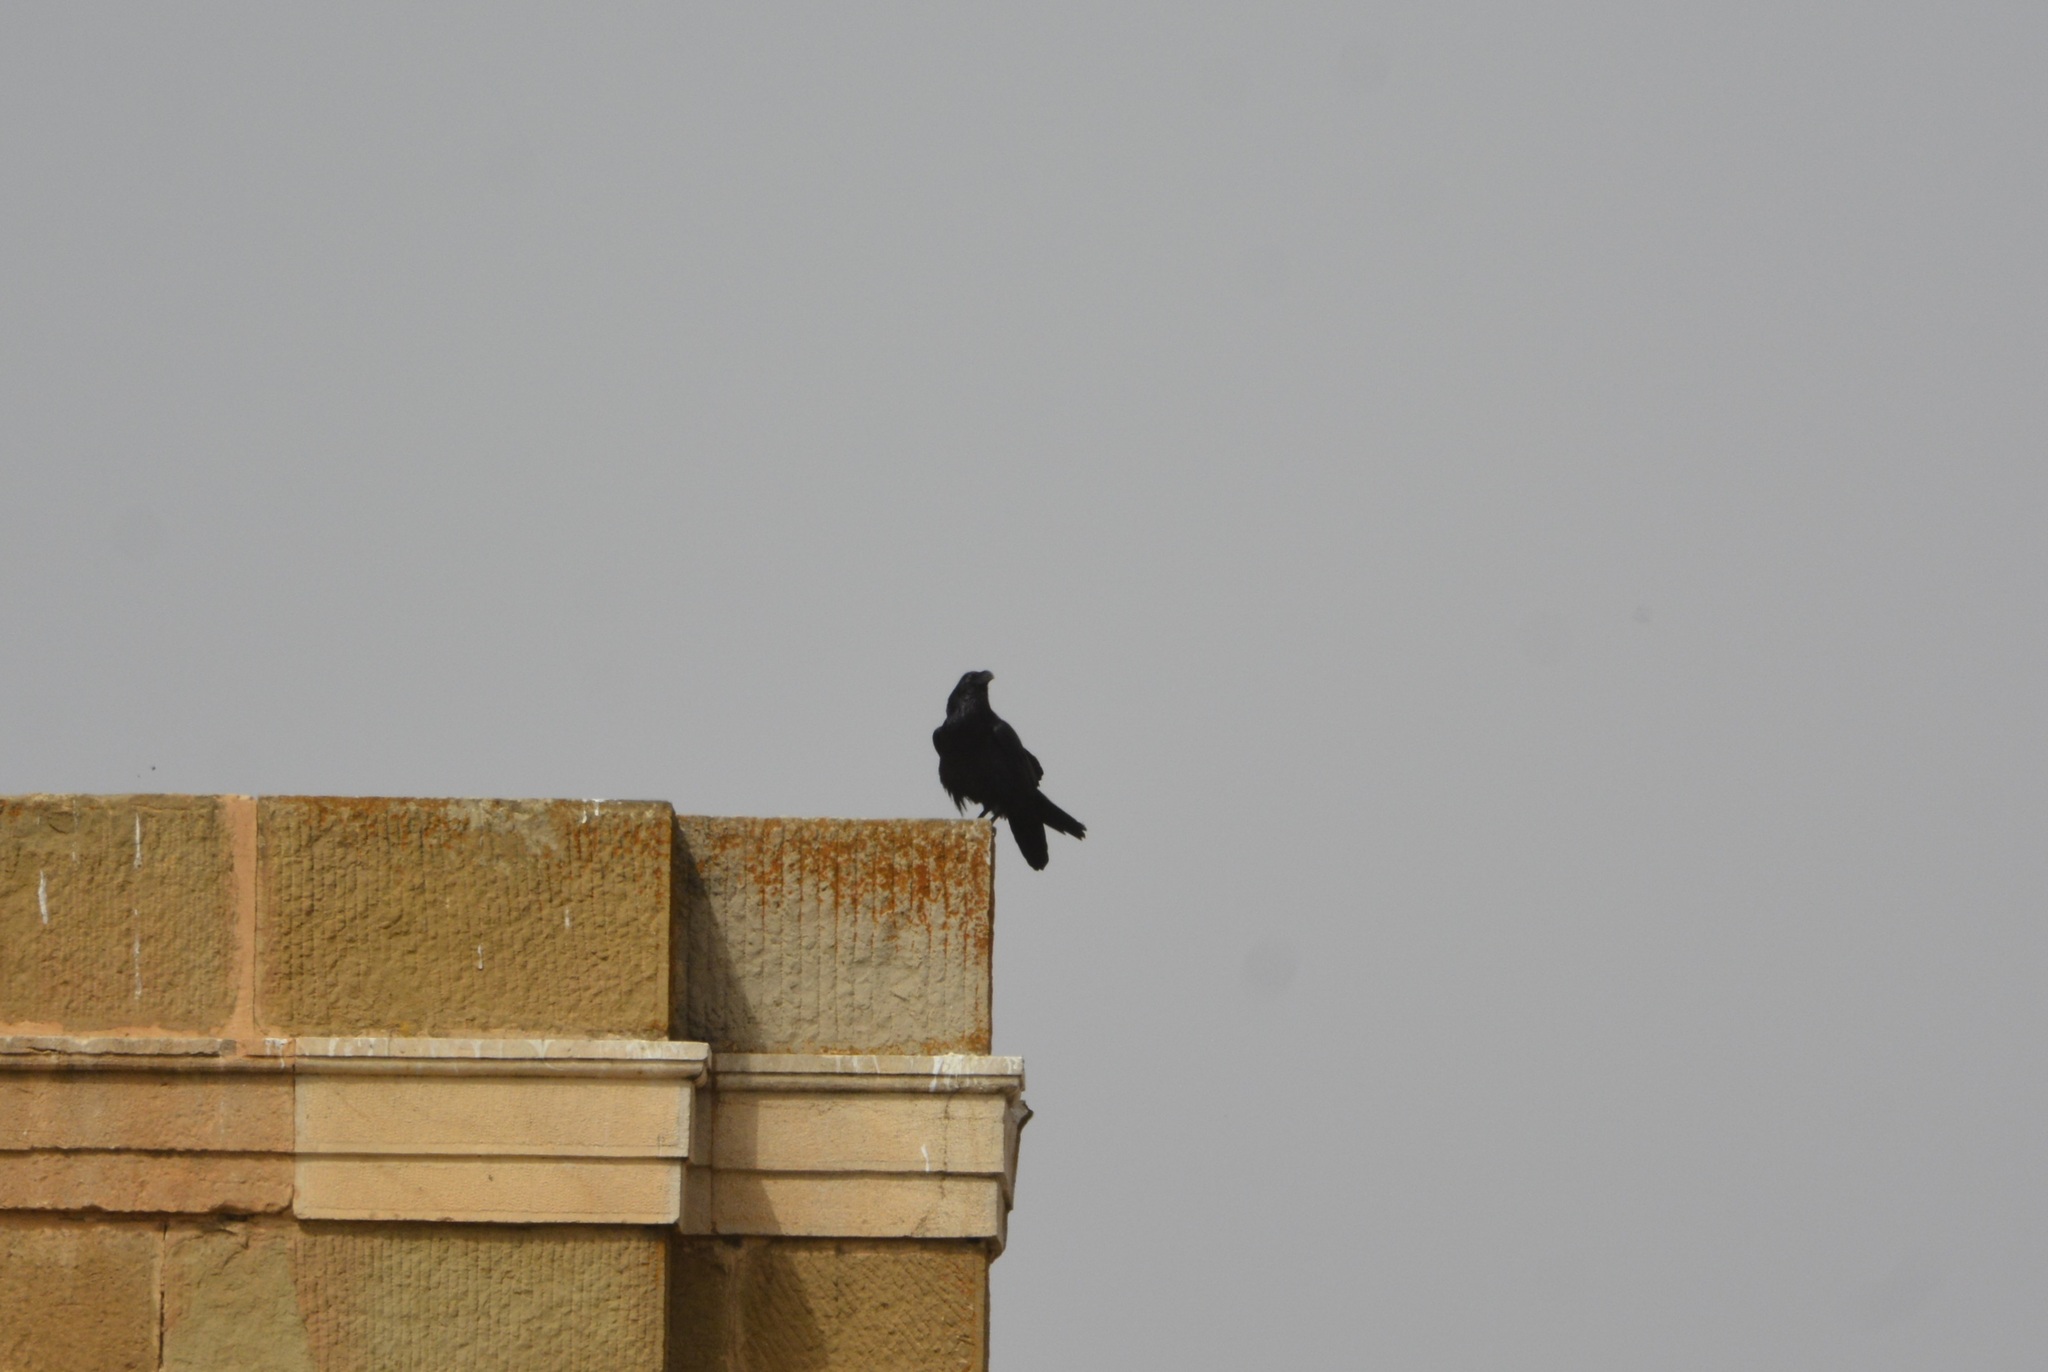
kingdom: Animalia
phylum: Chordata
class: Aves
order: Passeriformes
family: Corvidae
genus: Corvus
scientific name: Corvus corax
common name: Common raven
